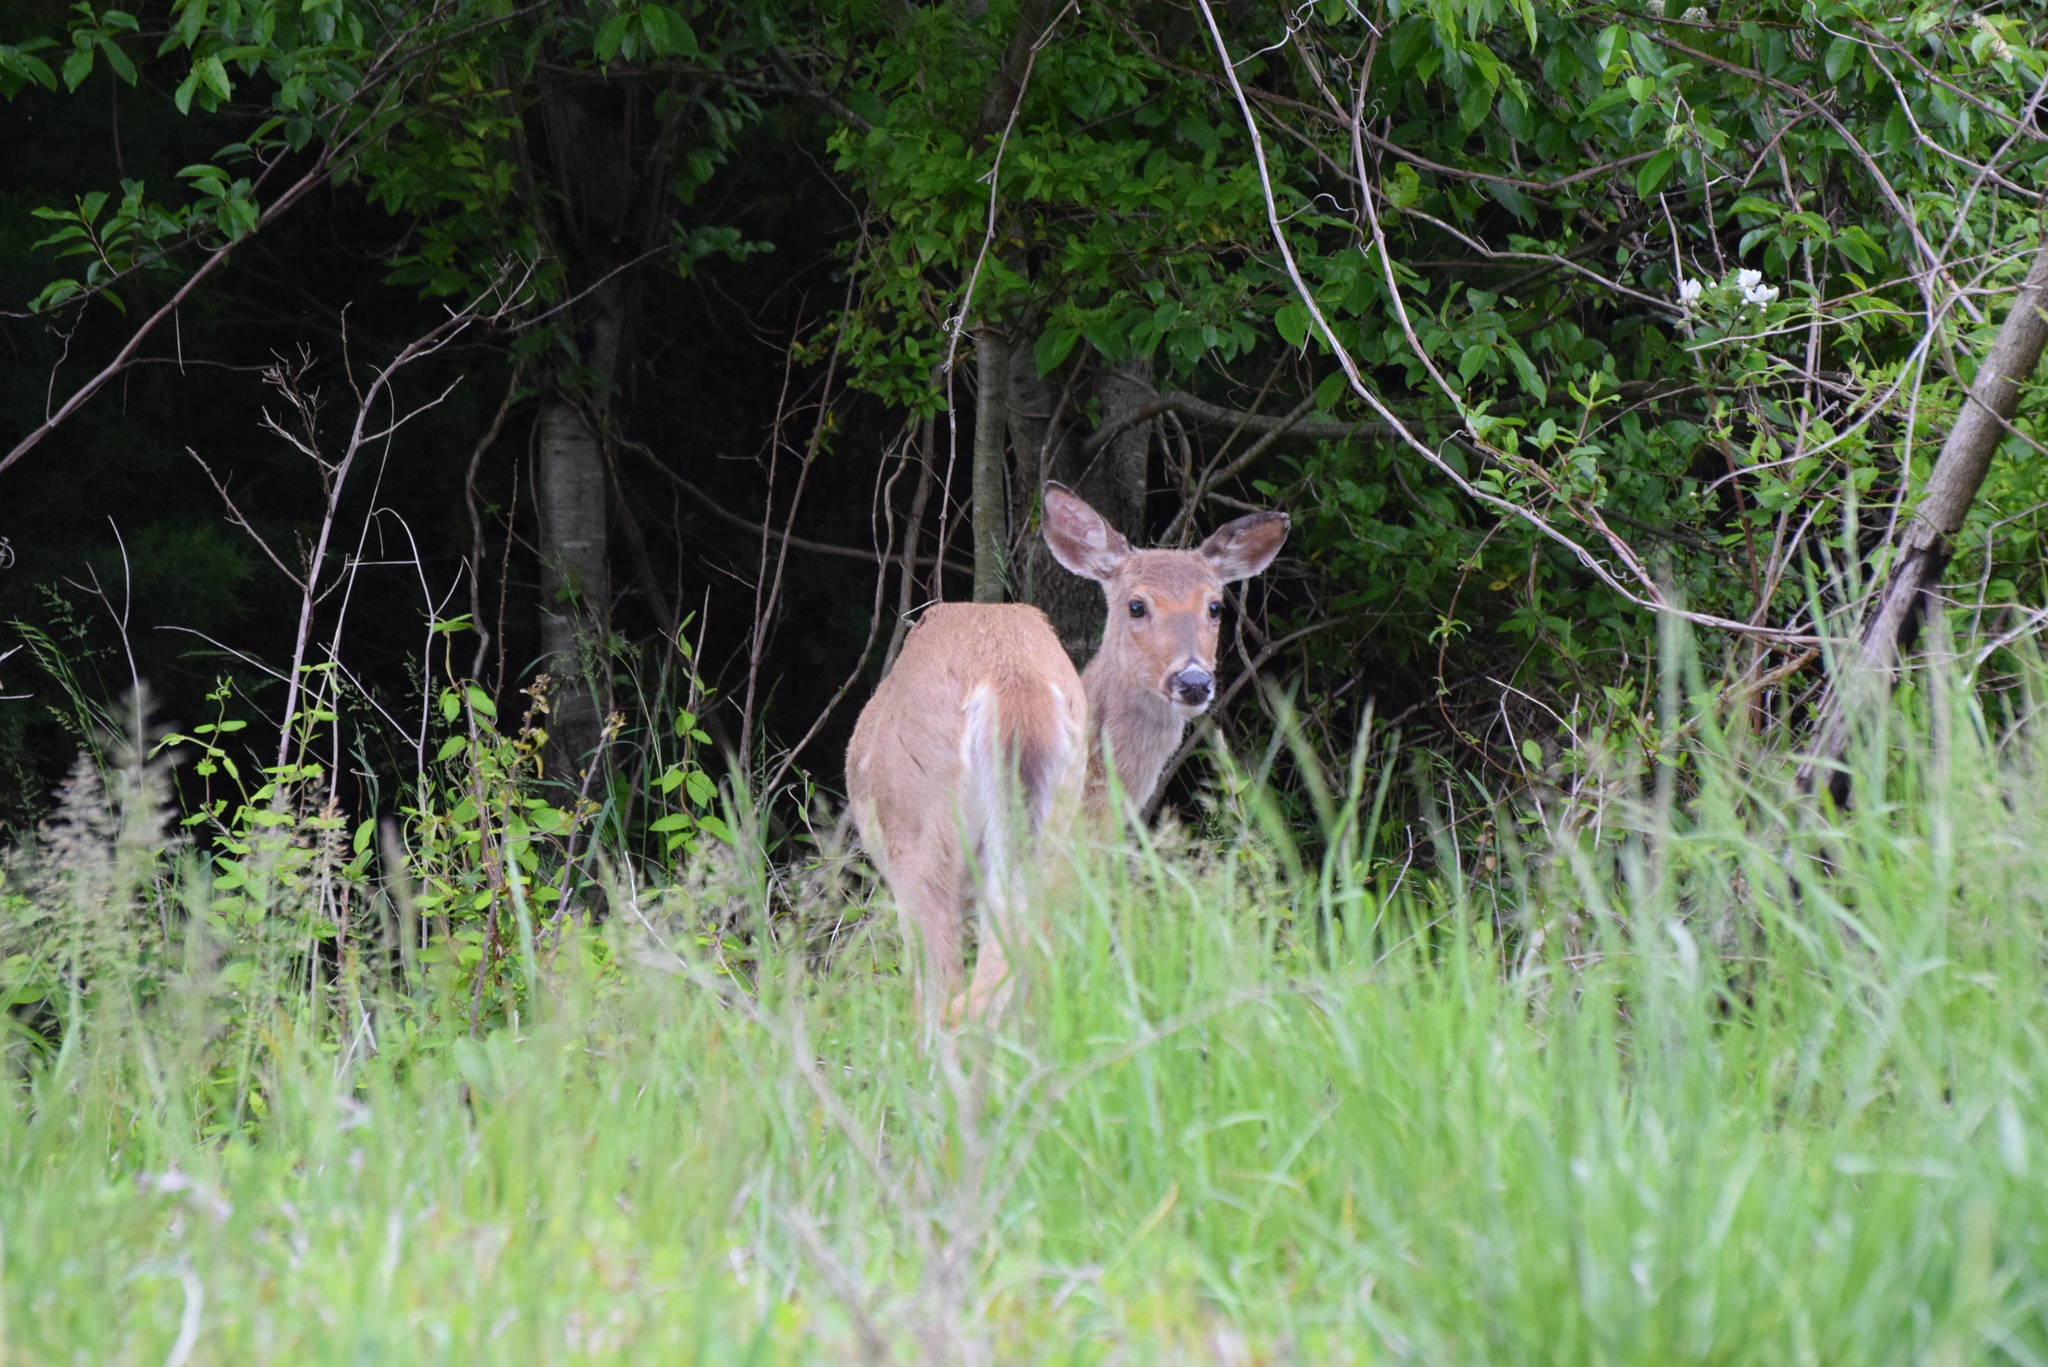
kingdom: Animalia
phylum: Chordata
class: Mammalia
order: Artiodactyla
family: Cervidae
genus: Odocoileus
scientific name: Odocoileus virginianus
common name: White-tailed deer
